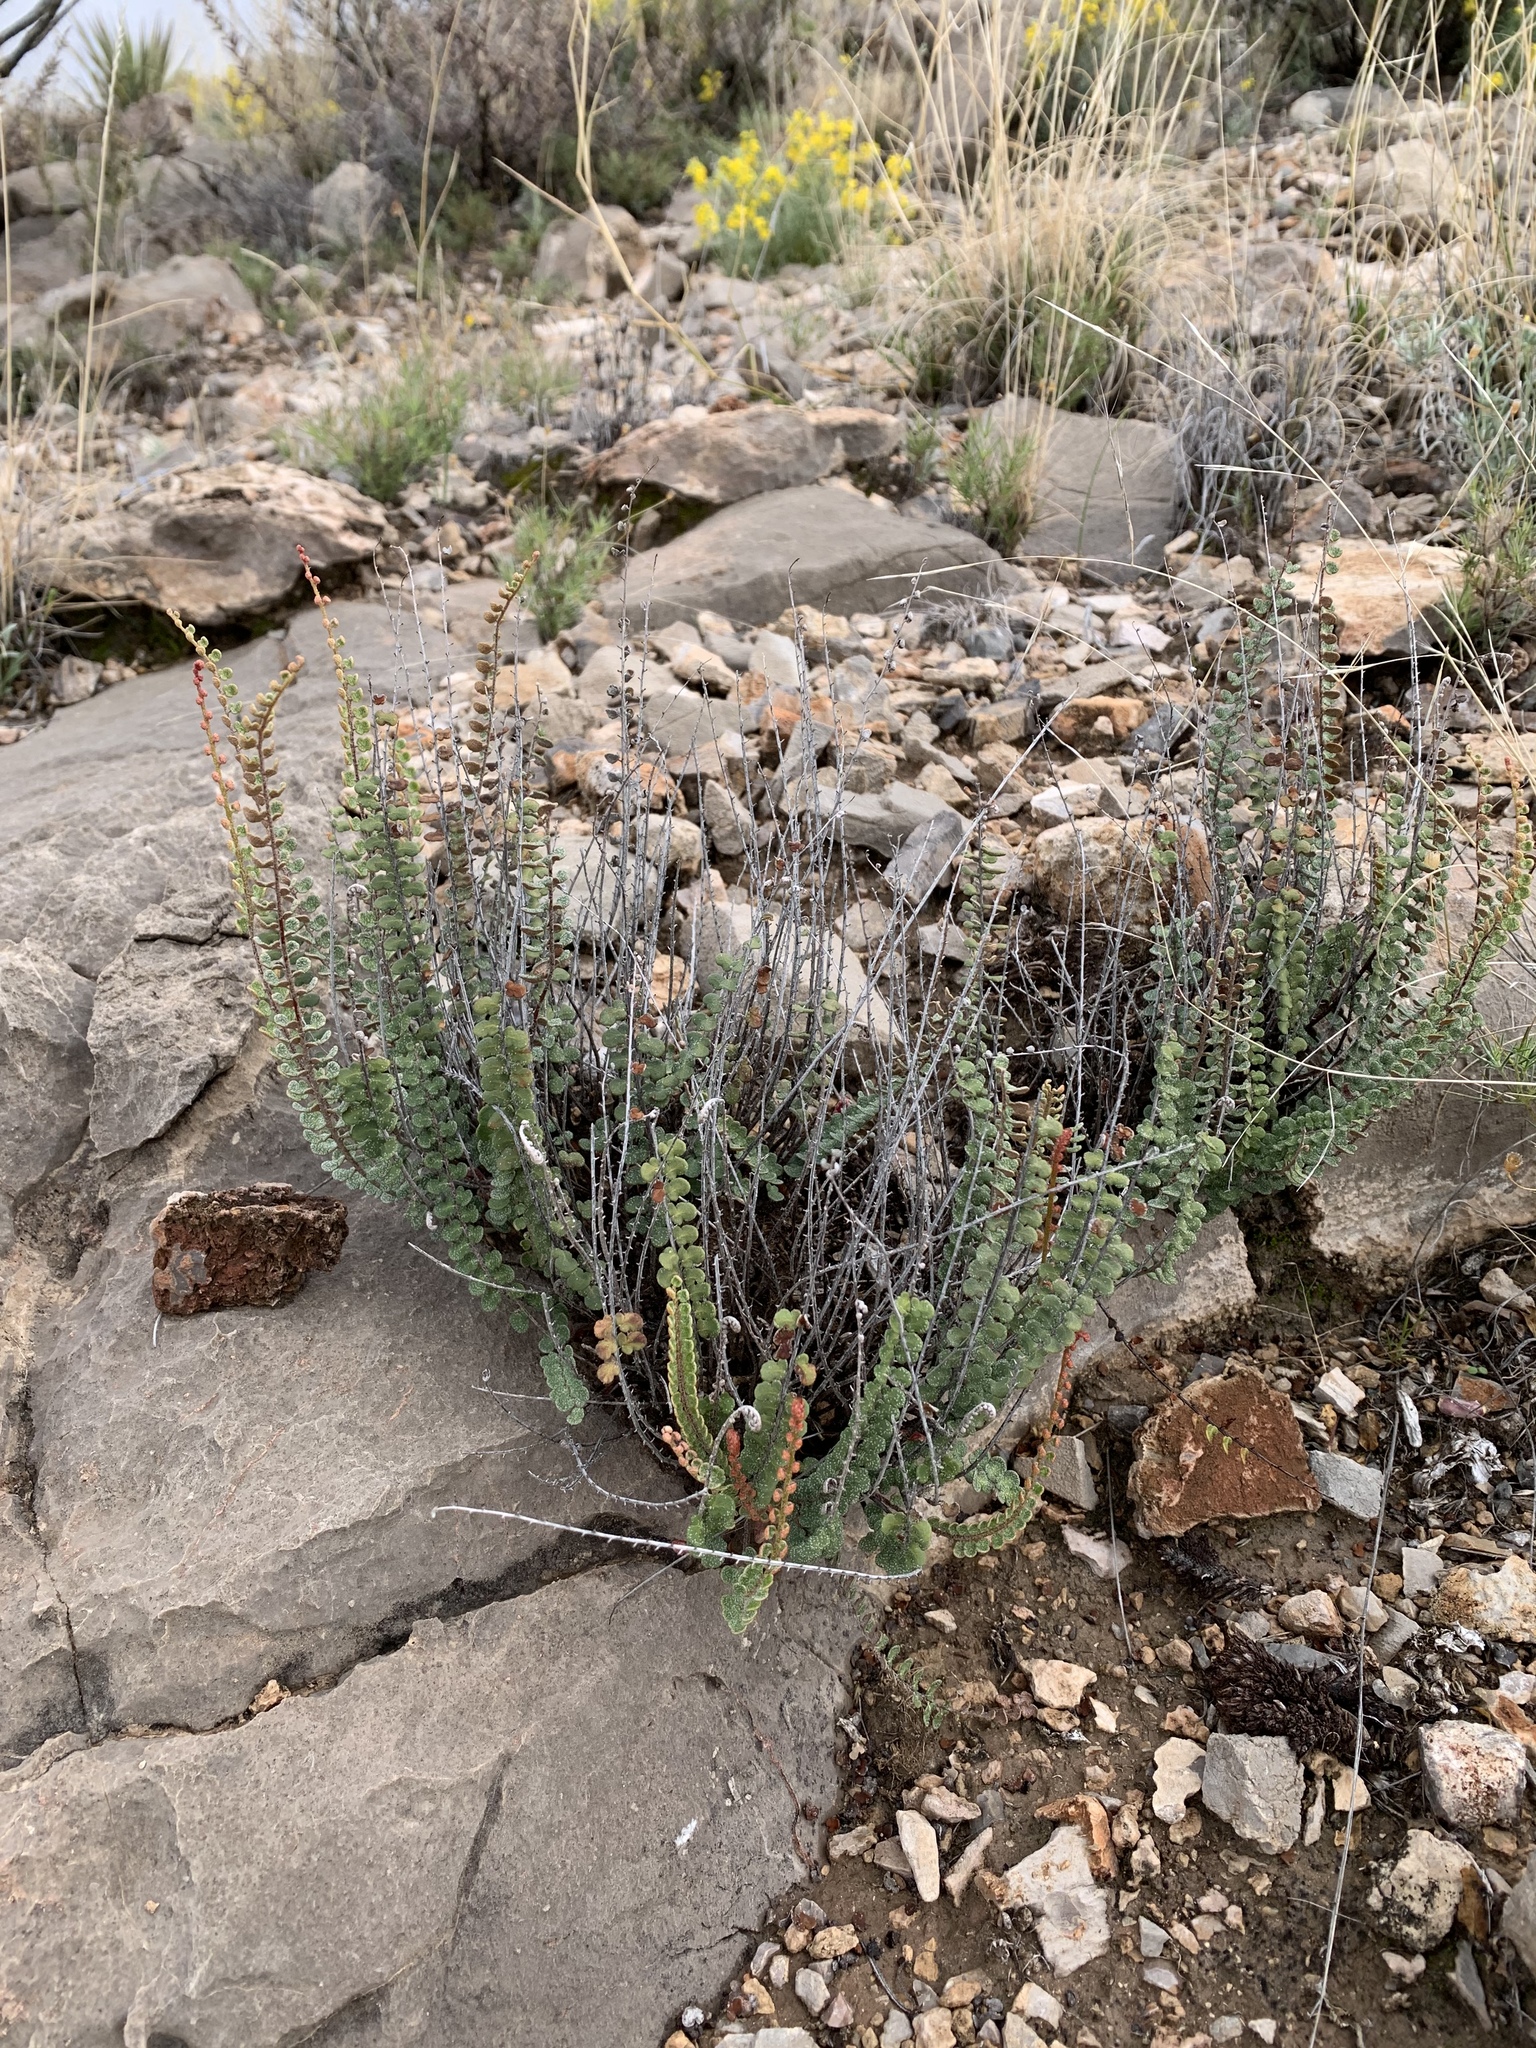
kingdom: Plantae
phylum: Tracheophyta
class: Polypodiopsida
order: Polypodiales
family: Pteridaceae
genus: Astrolepis
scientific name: Astrolepis cochisensis
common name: Scaly cloak fern
